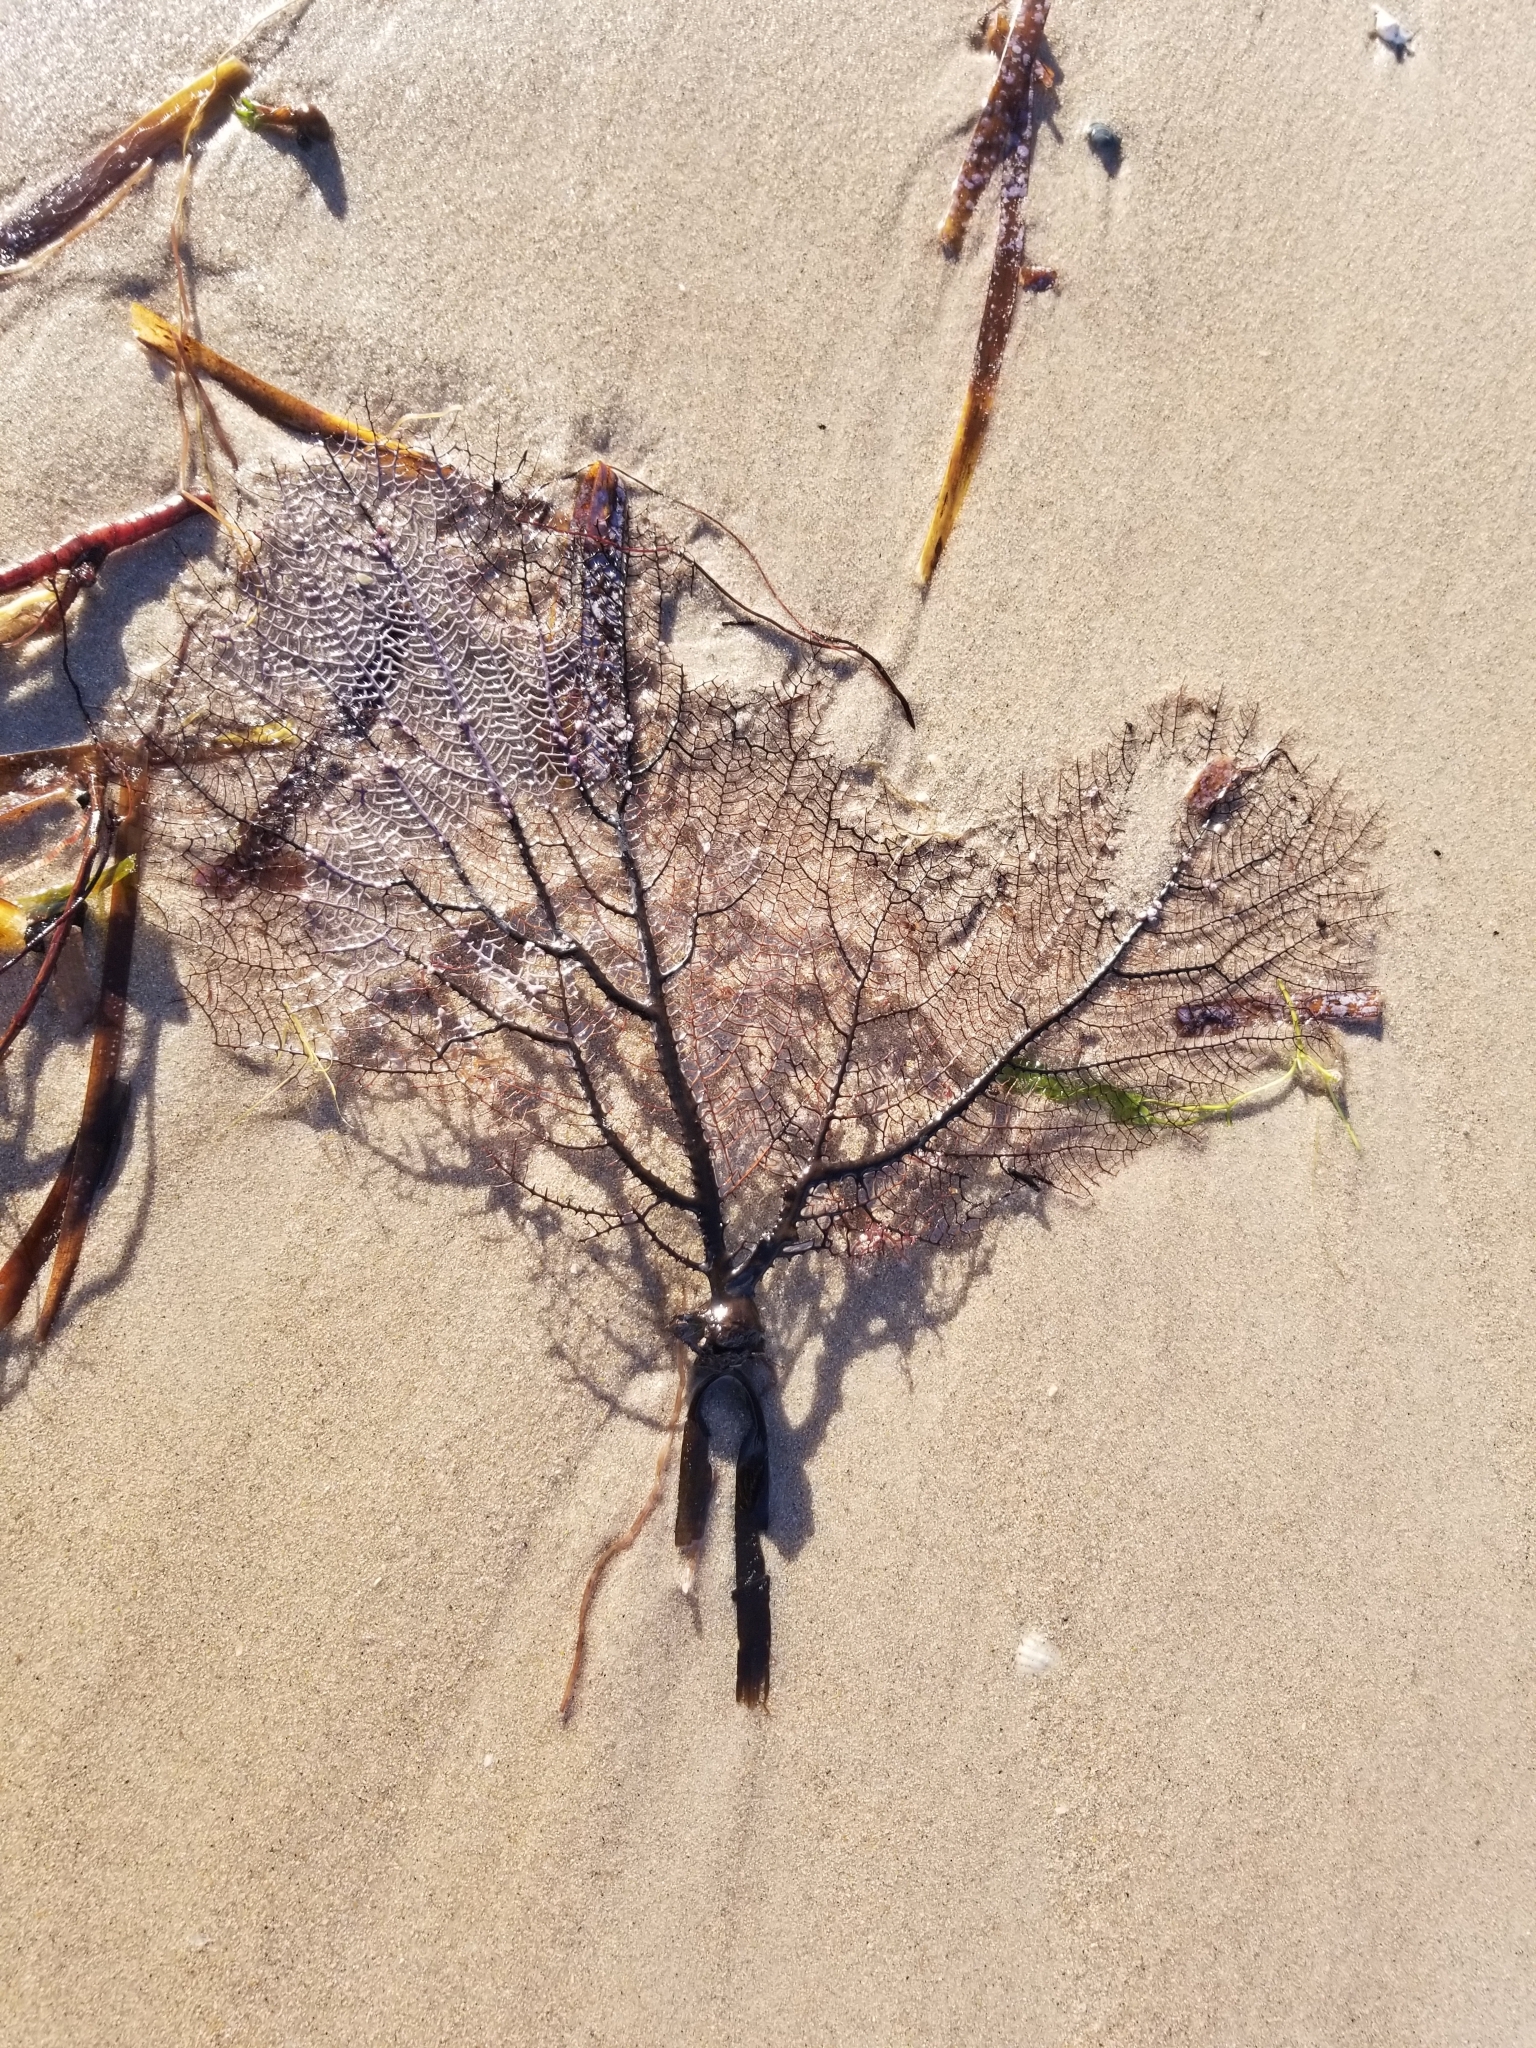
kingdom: Animalia
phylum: Cnidaria
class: Anthozoa
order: Malacalcyonacea
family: Gorgoniidae
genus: Gorgonia
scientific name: Gorgonia ventalina
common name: Common sea fan
